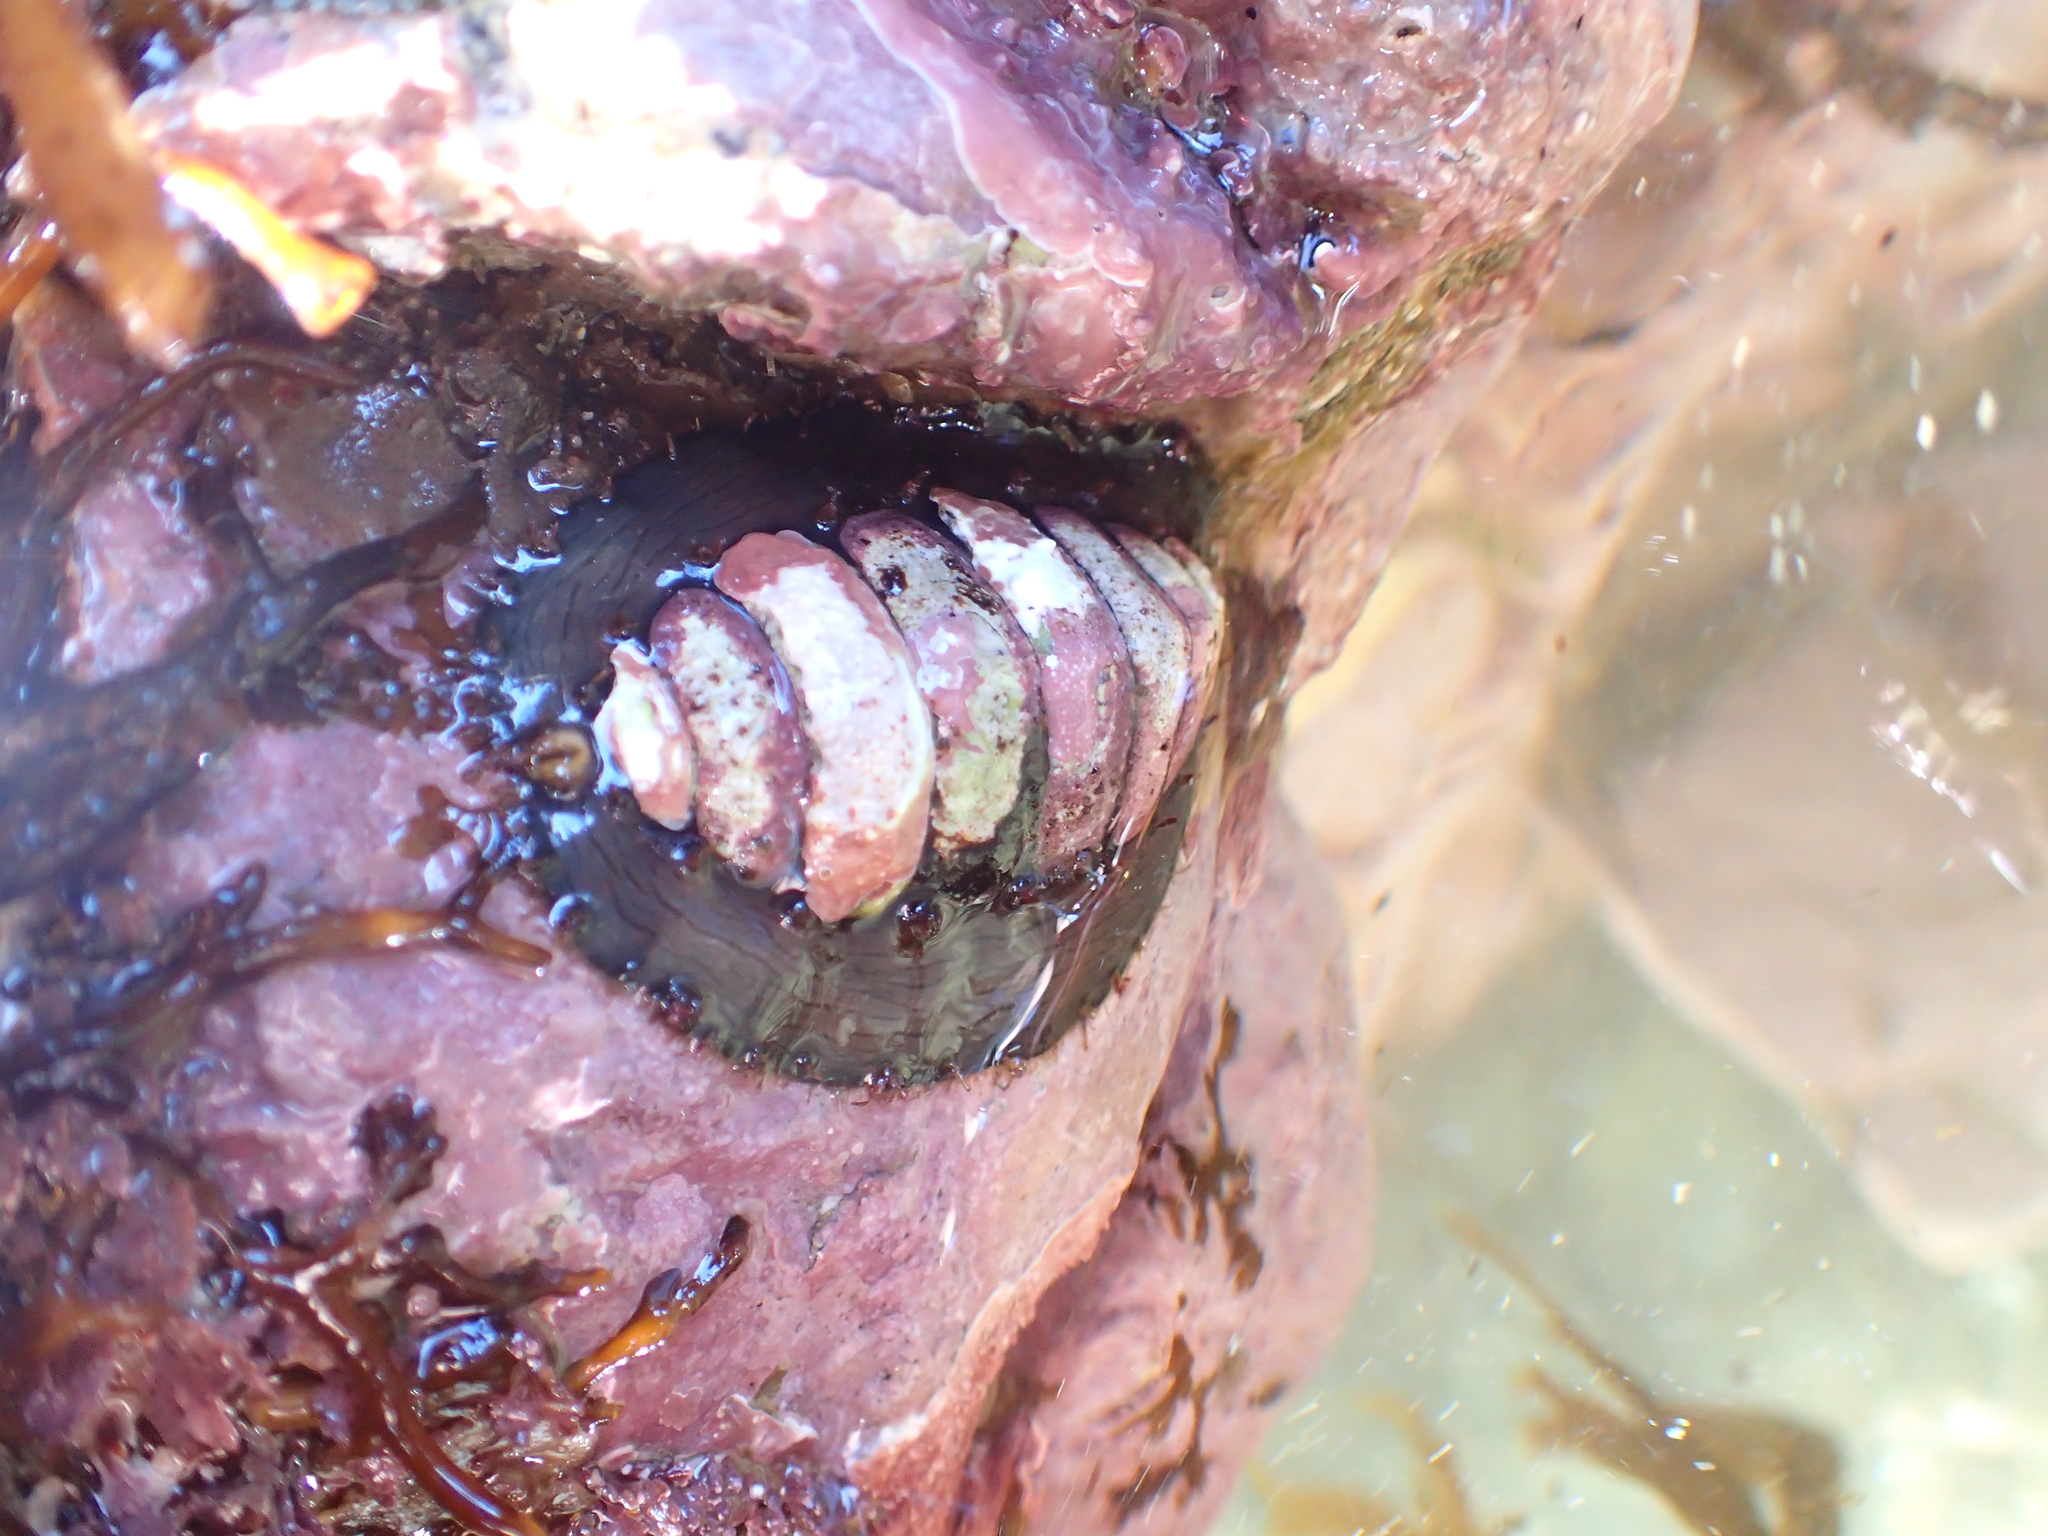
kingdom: Animalia
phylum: Mollusca
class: Polyplacophora
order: Chitonida
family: Mopaliidae
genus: Plaxiphora
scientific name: Plaxiphora biramosa
